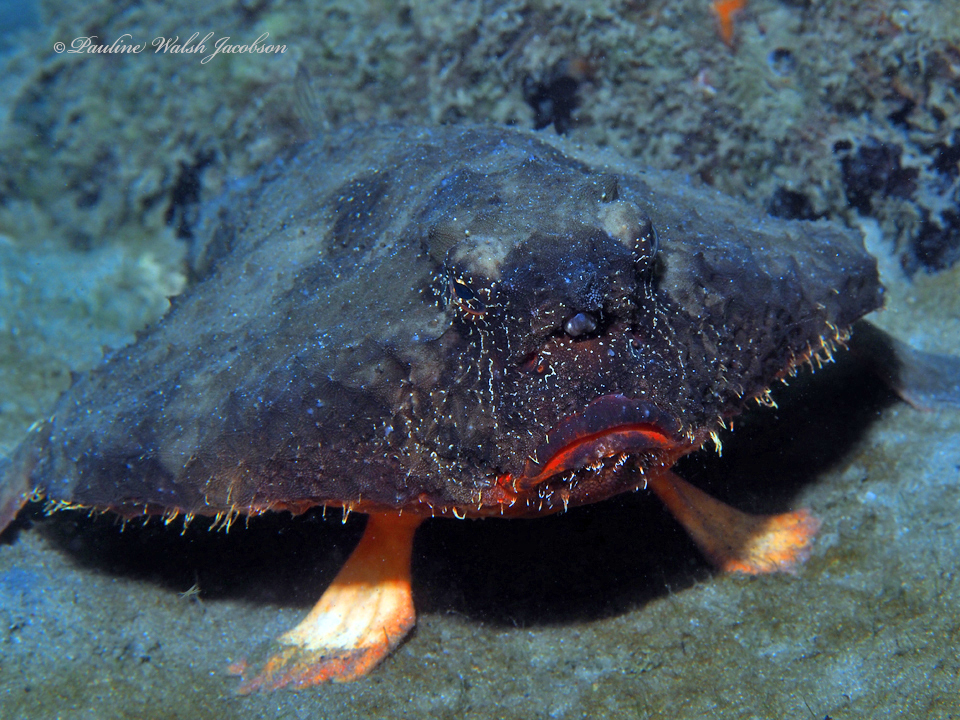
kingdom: Animalia
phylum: Chordata
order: Lophiiformes
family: Ogcocephalidae
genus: Ogcocephalus
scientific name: Ogcocephalus nasutus
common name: Shortnose batfish
